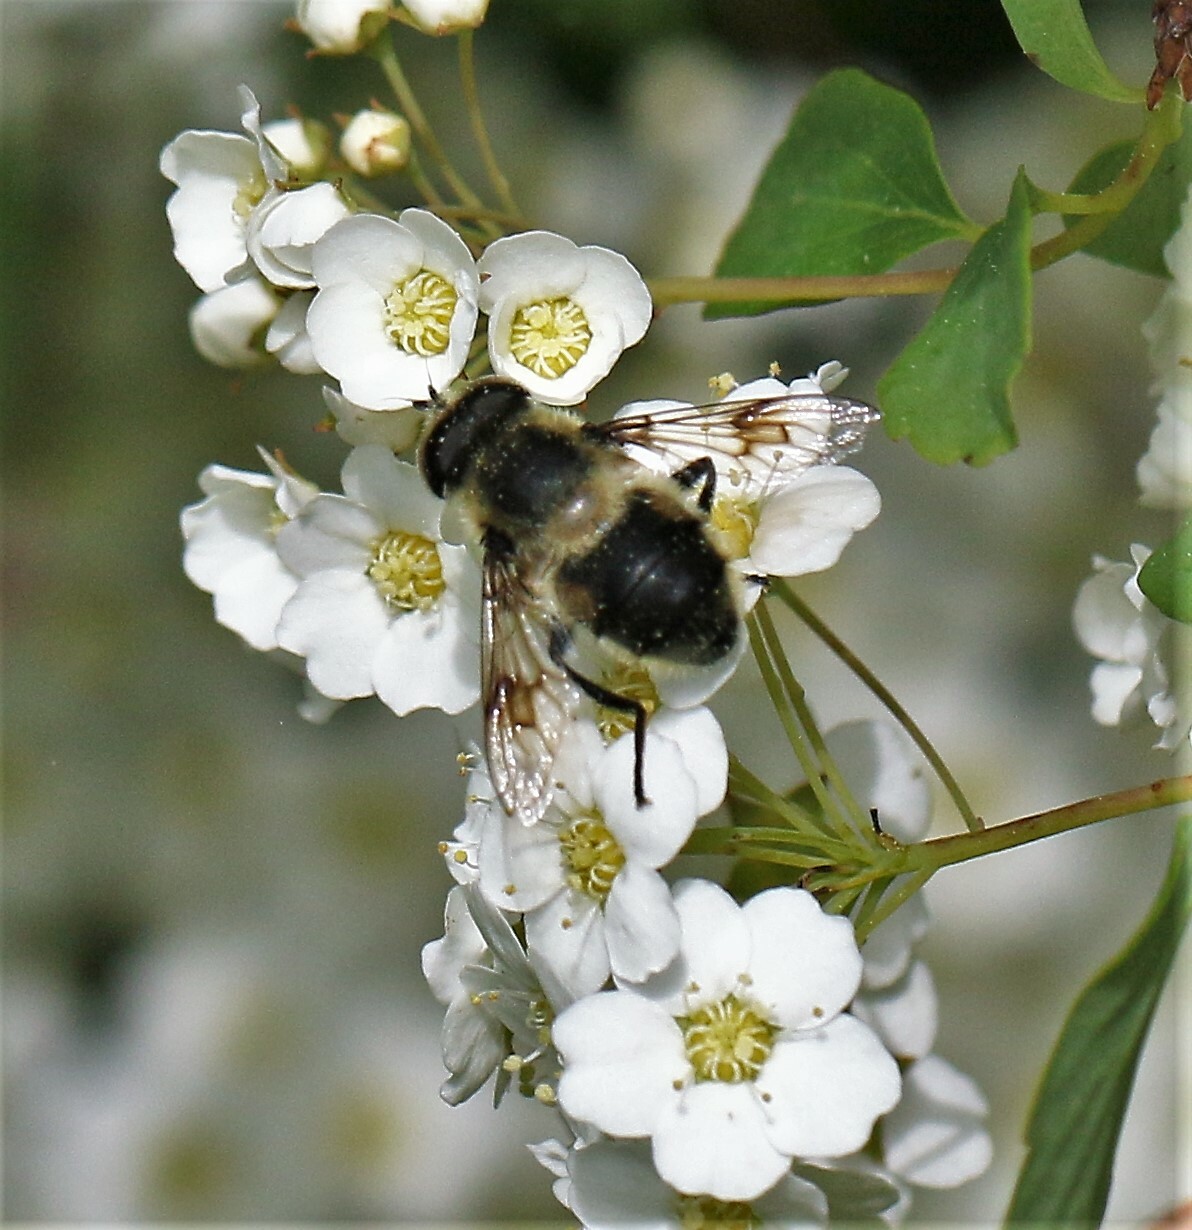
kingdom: Animalia
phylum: Arthropoda
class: Insecta
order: Diptera
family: Syrphidae
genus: Eristalis
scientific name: Eristalis anthophorina
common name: Orange-spotted drone fly
